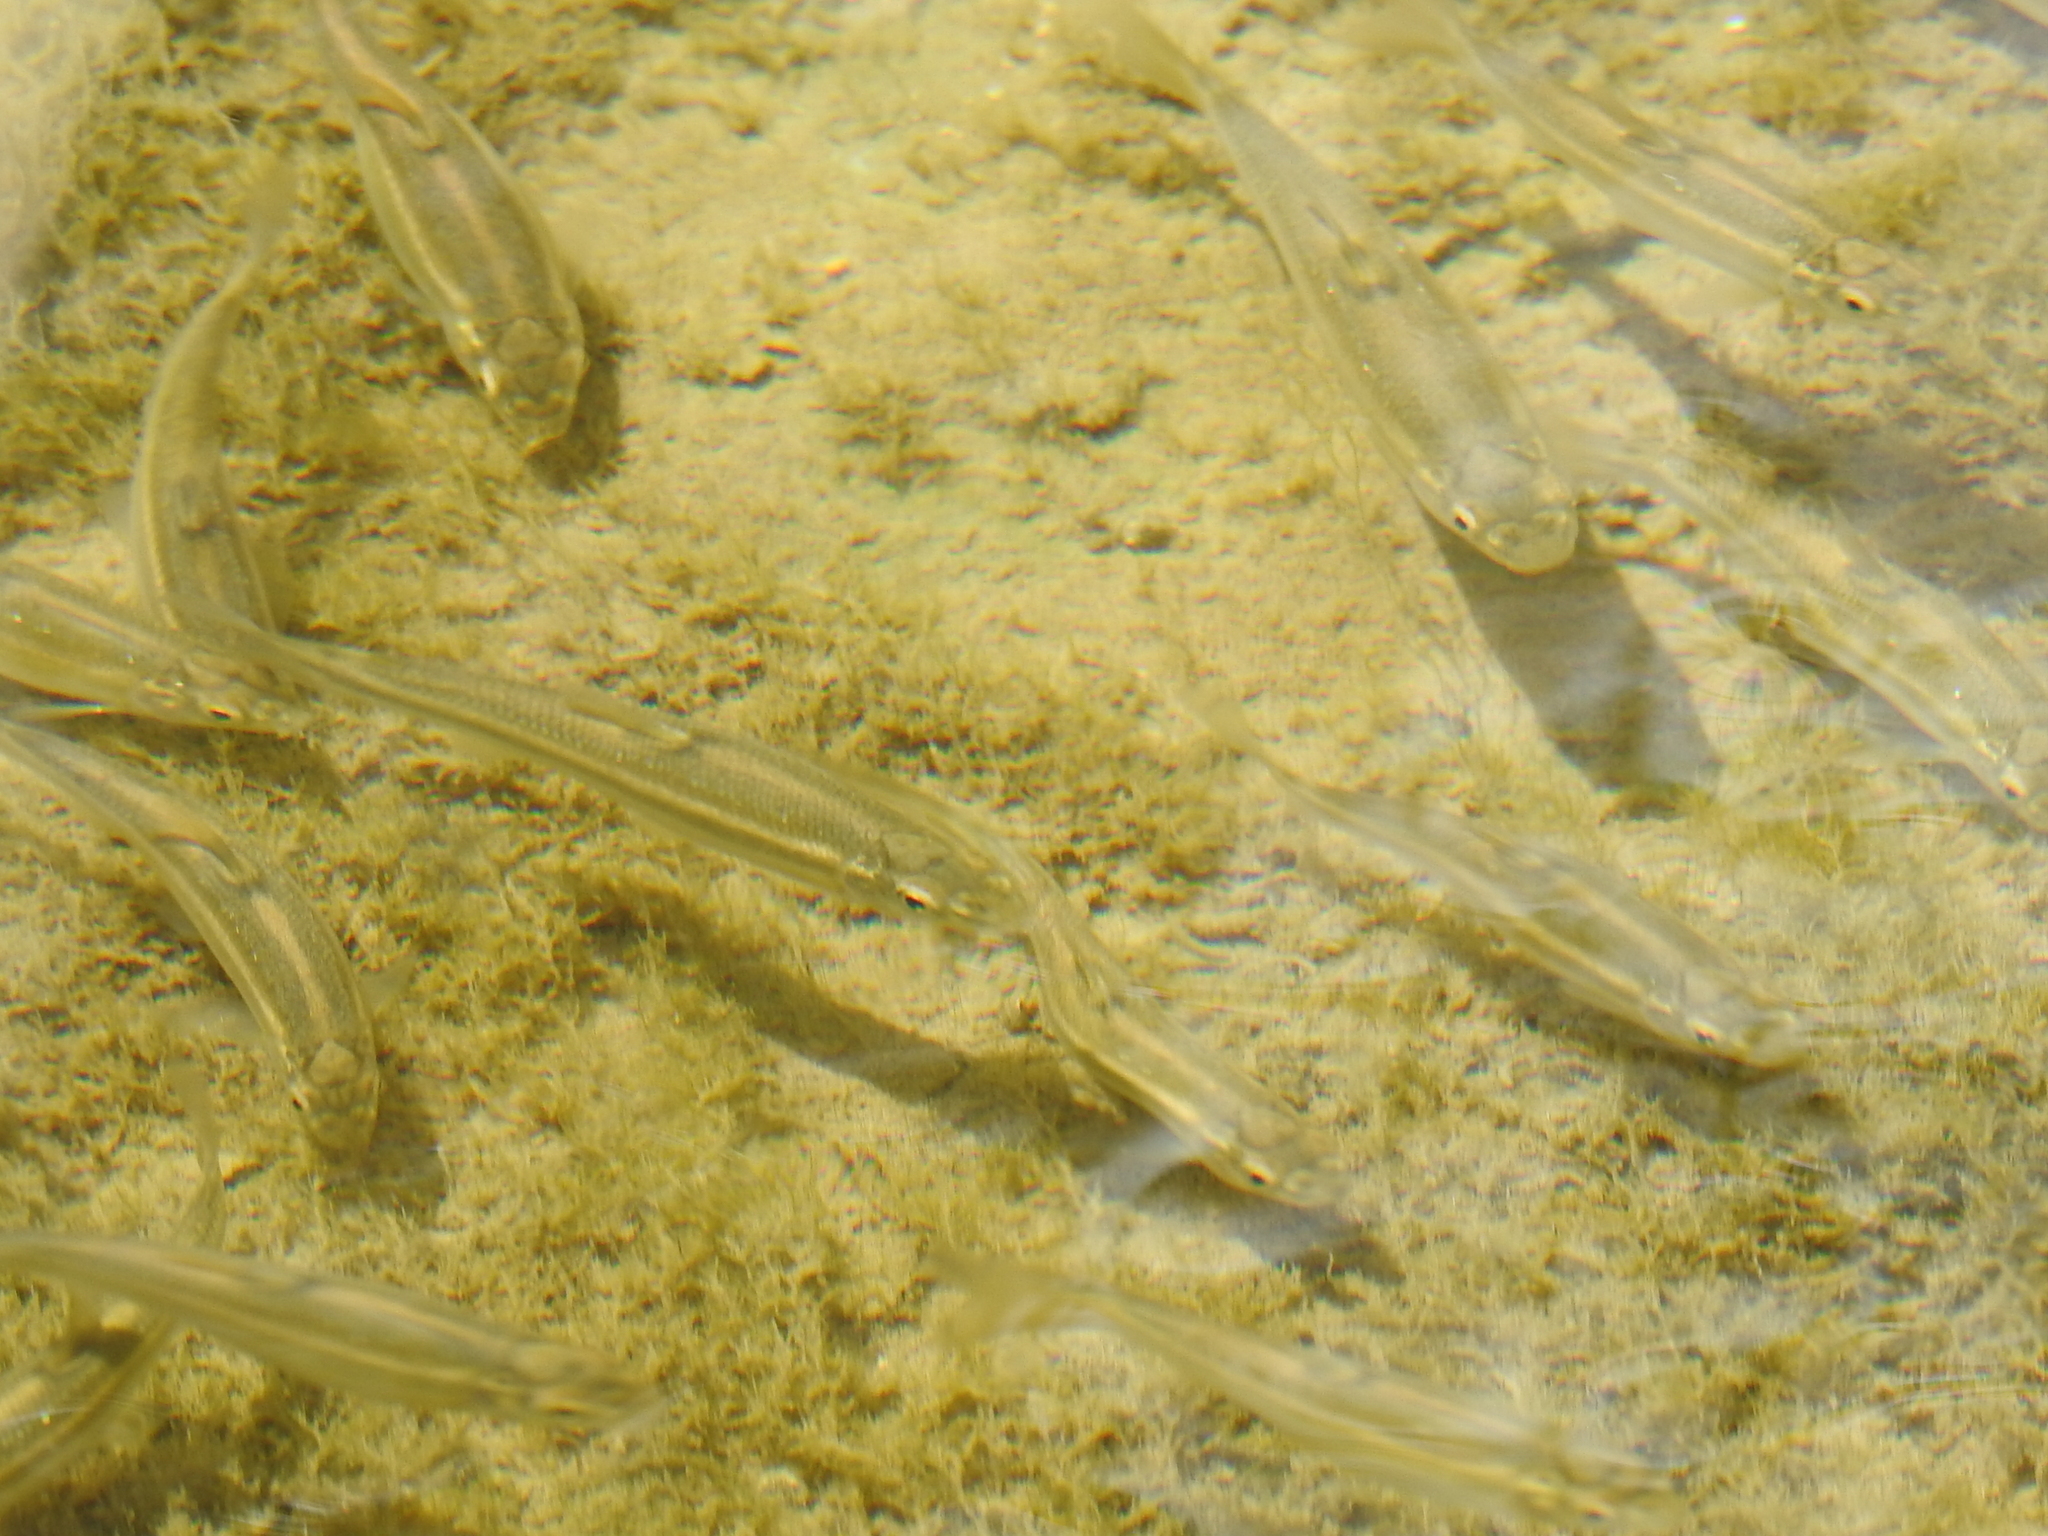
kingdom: Animalia
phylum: Chordata
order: Cypriniformes
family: Cyprinidae
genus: Campostoma
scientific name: Campostoma anomalum
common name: Central stoneroller
